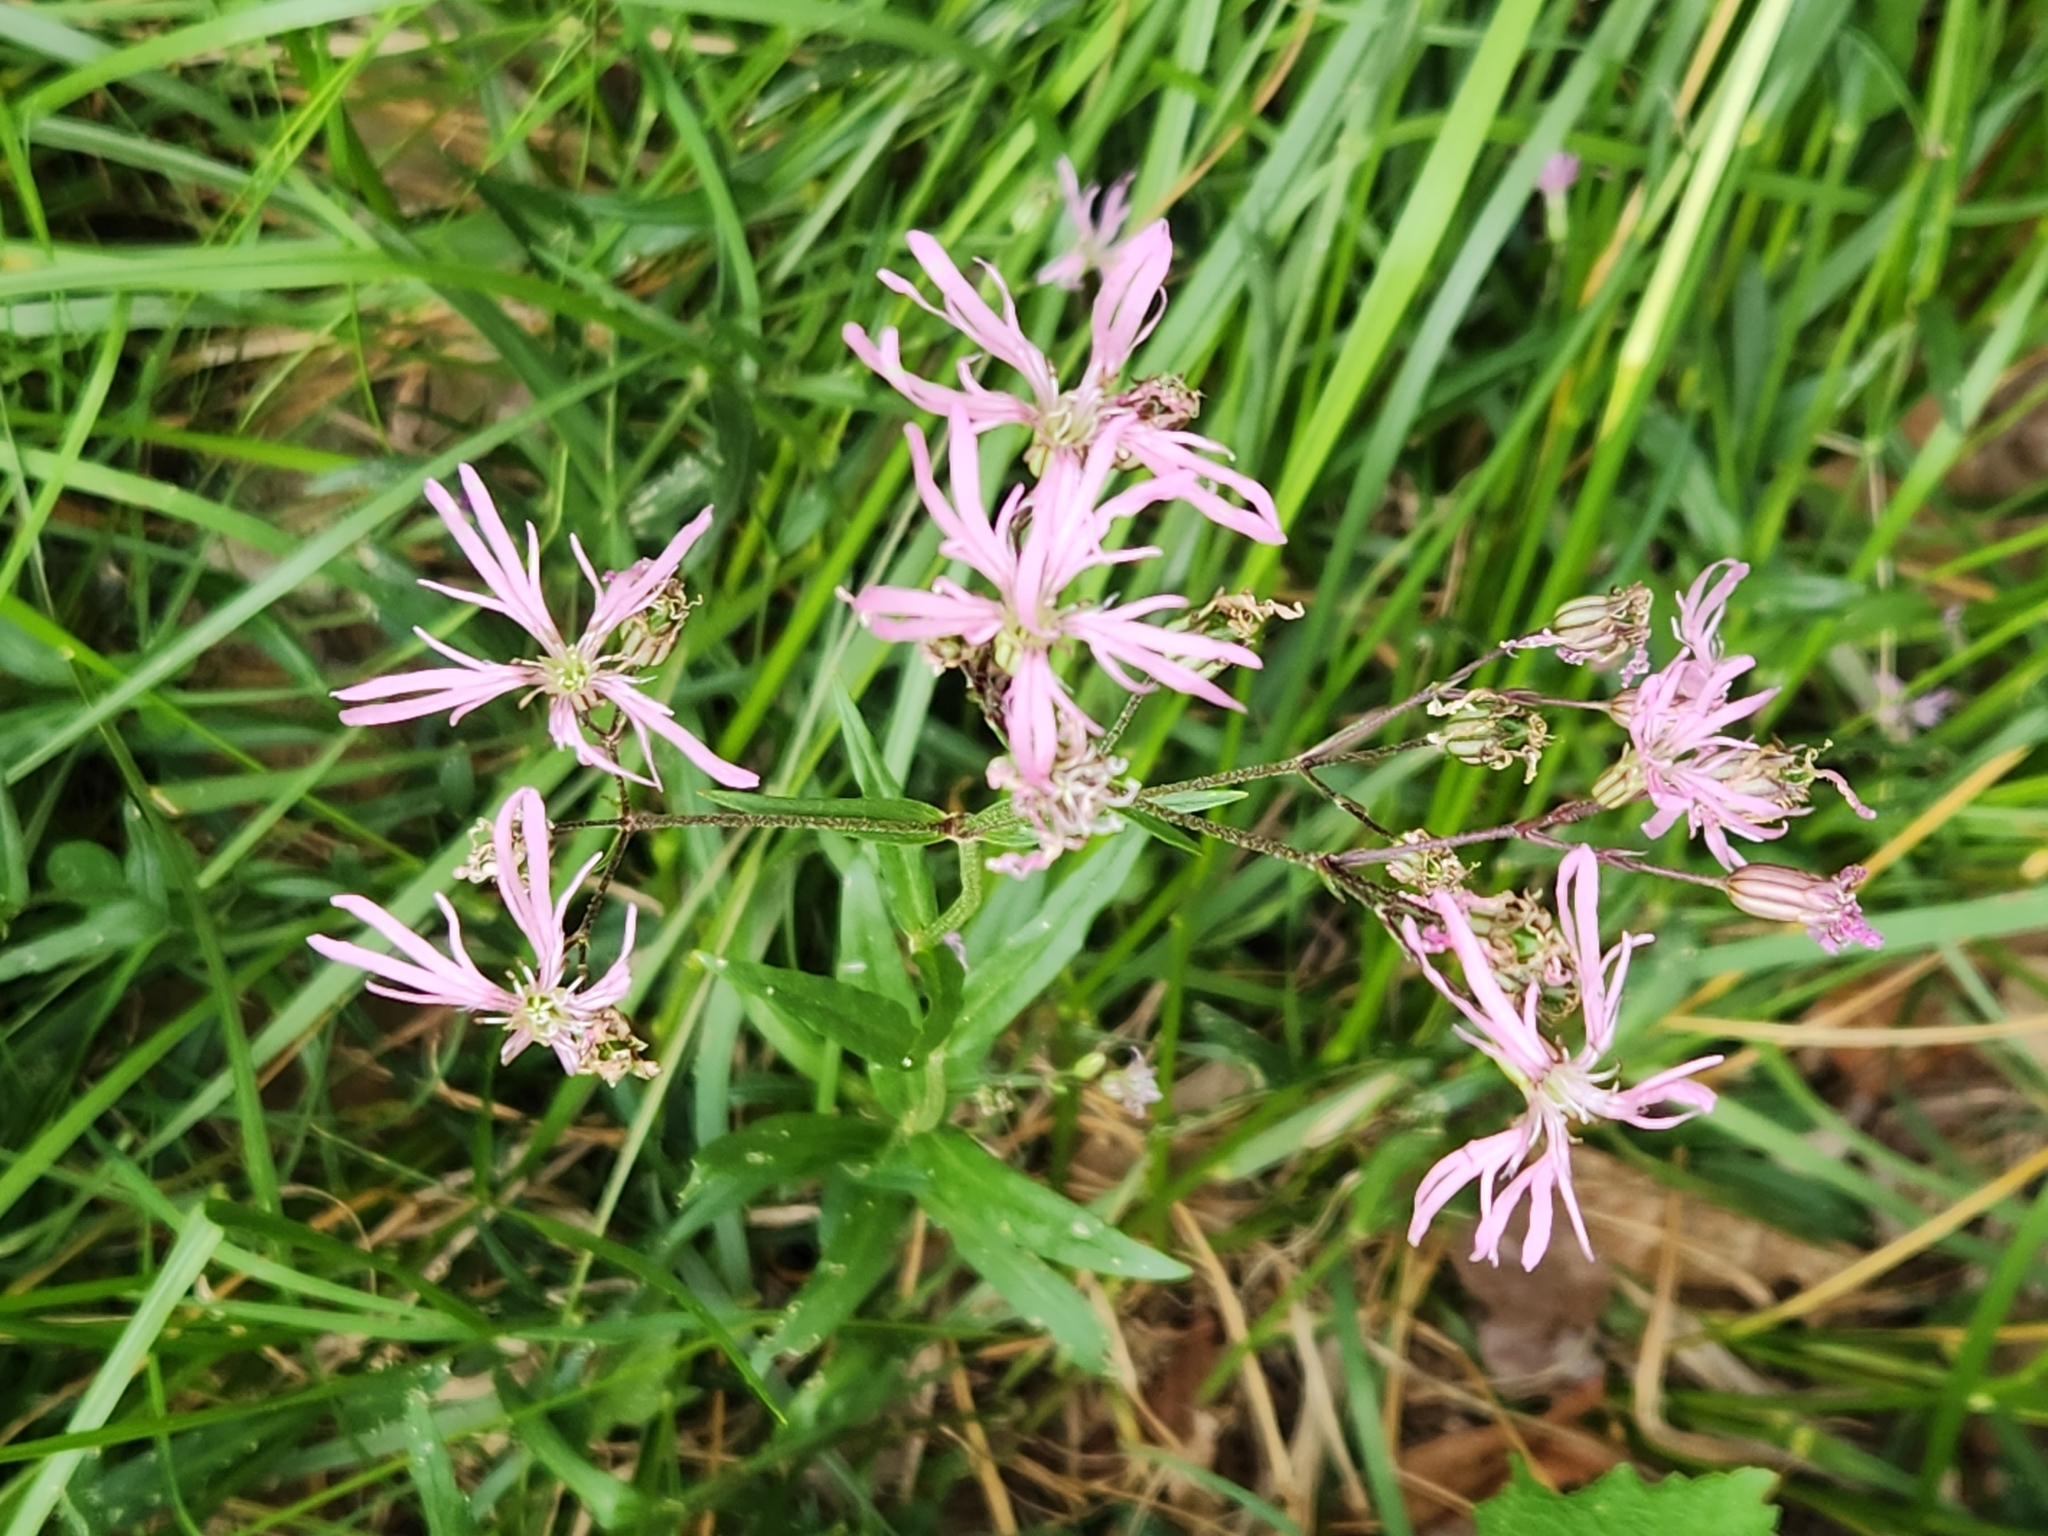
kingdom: Plantae
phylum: Tracheophyta
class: Magnoliopsida
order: Caryophyllales
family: Caryophyllaceae
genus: Silene
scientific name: Silene flos-cuculi
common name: Ragged-robin
